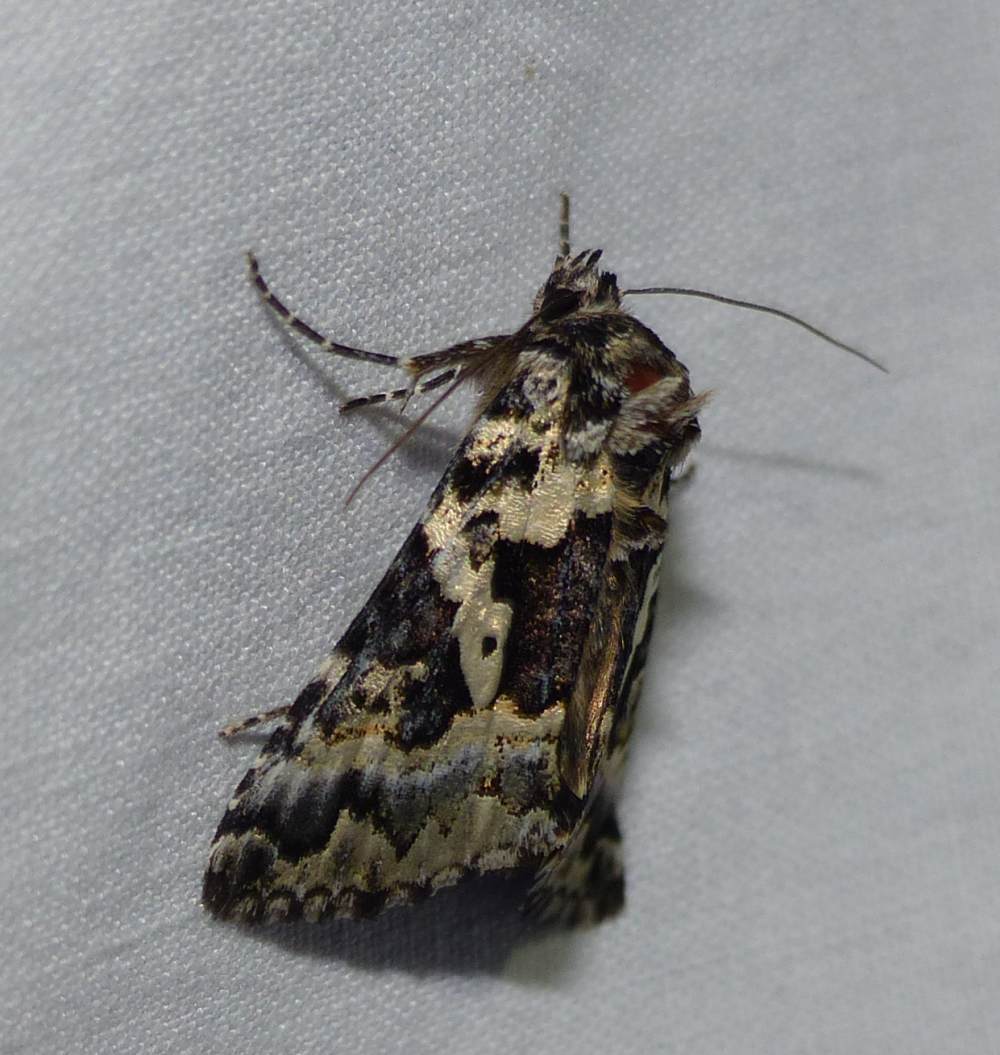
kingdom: Animalia
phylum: Arthropoda
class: Insecta
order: Lepidoptera
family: Noctuidae
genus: Syngrapha
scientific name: Syngrapha rectangula
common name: Angulated cutworm
